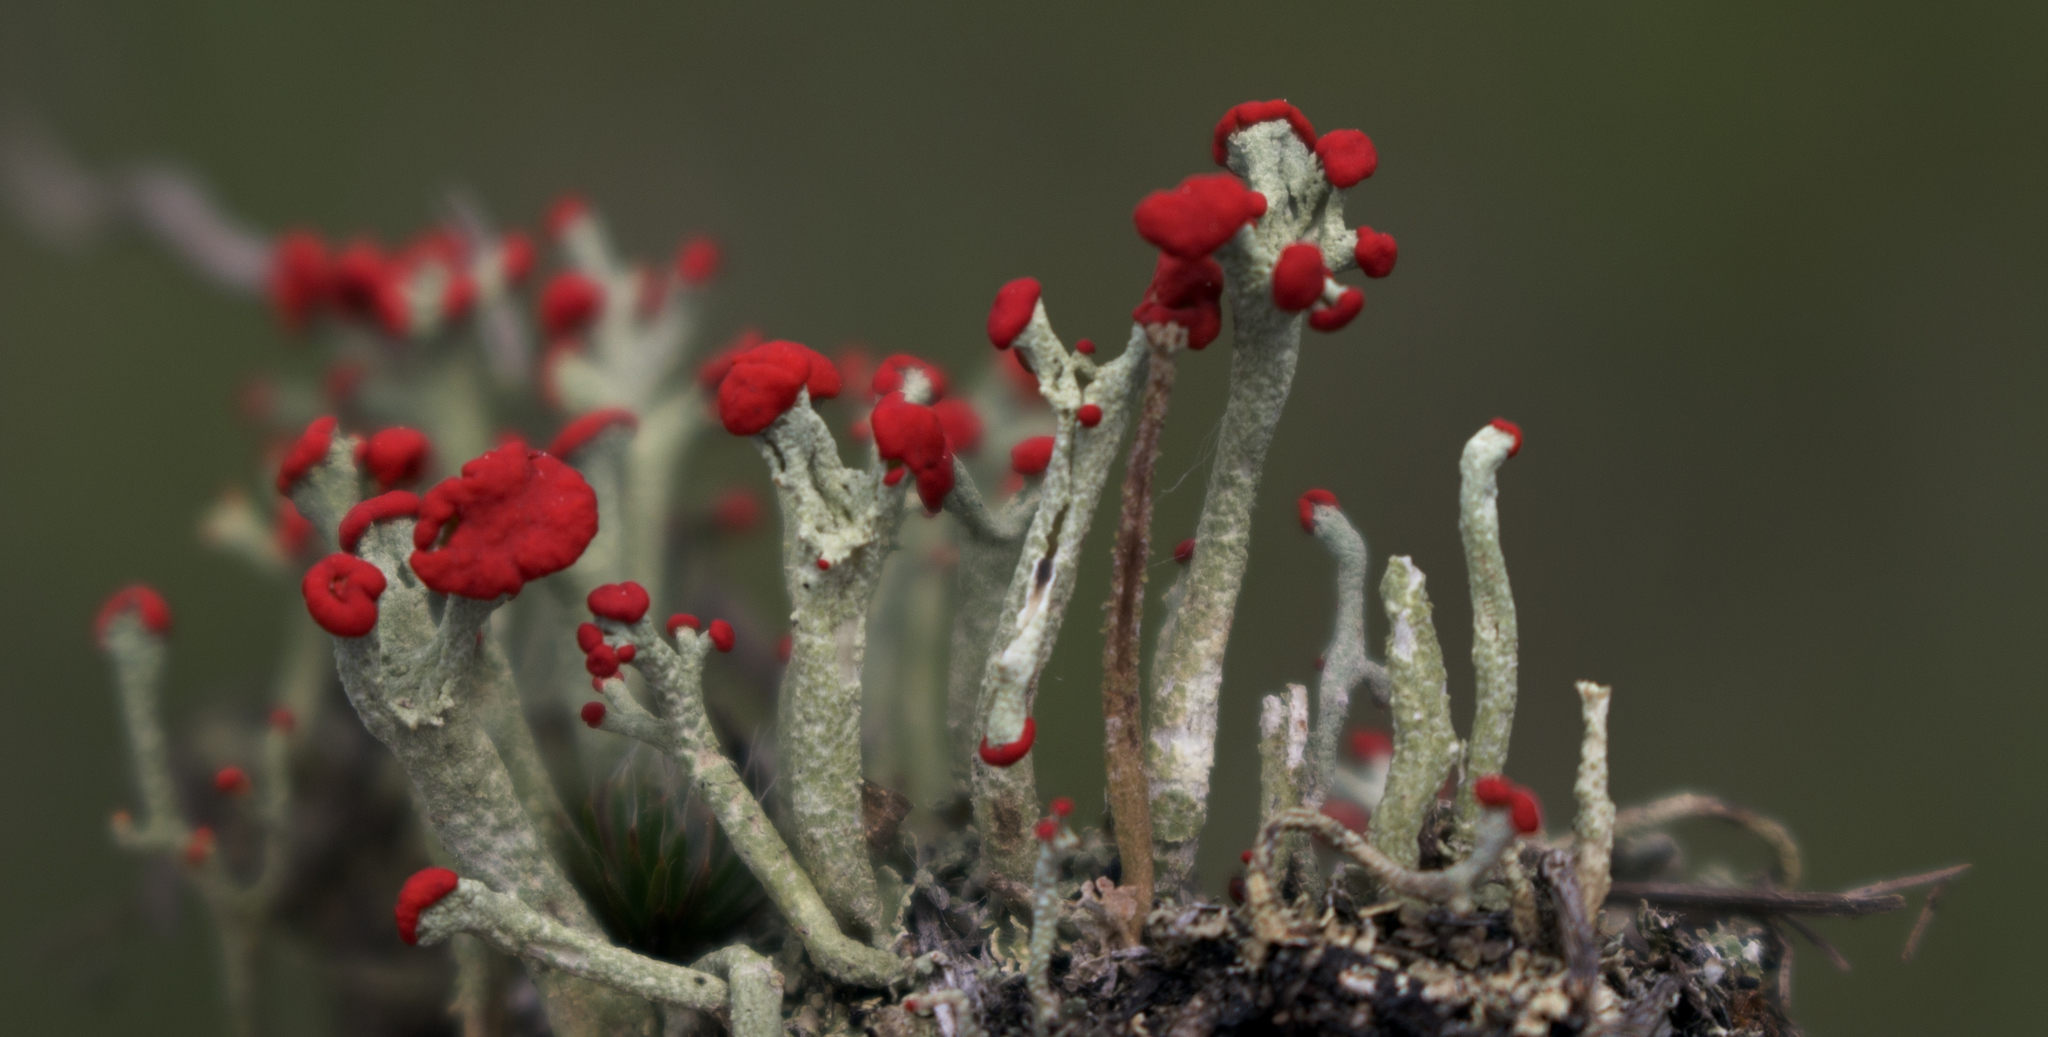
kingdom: Fungi
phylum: Ascomycota
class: Lecanoromycetes
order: Lecanorales
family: Cladoniaceae
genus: Cladonia
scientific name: Cladonia cristatella
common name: British soldier lichen
